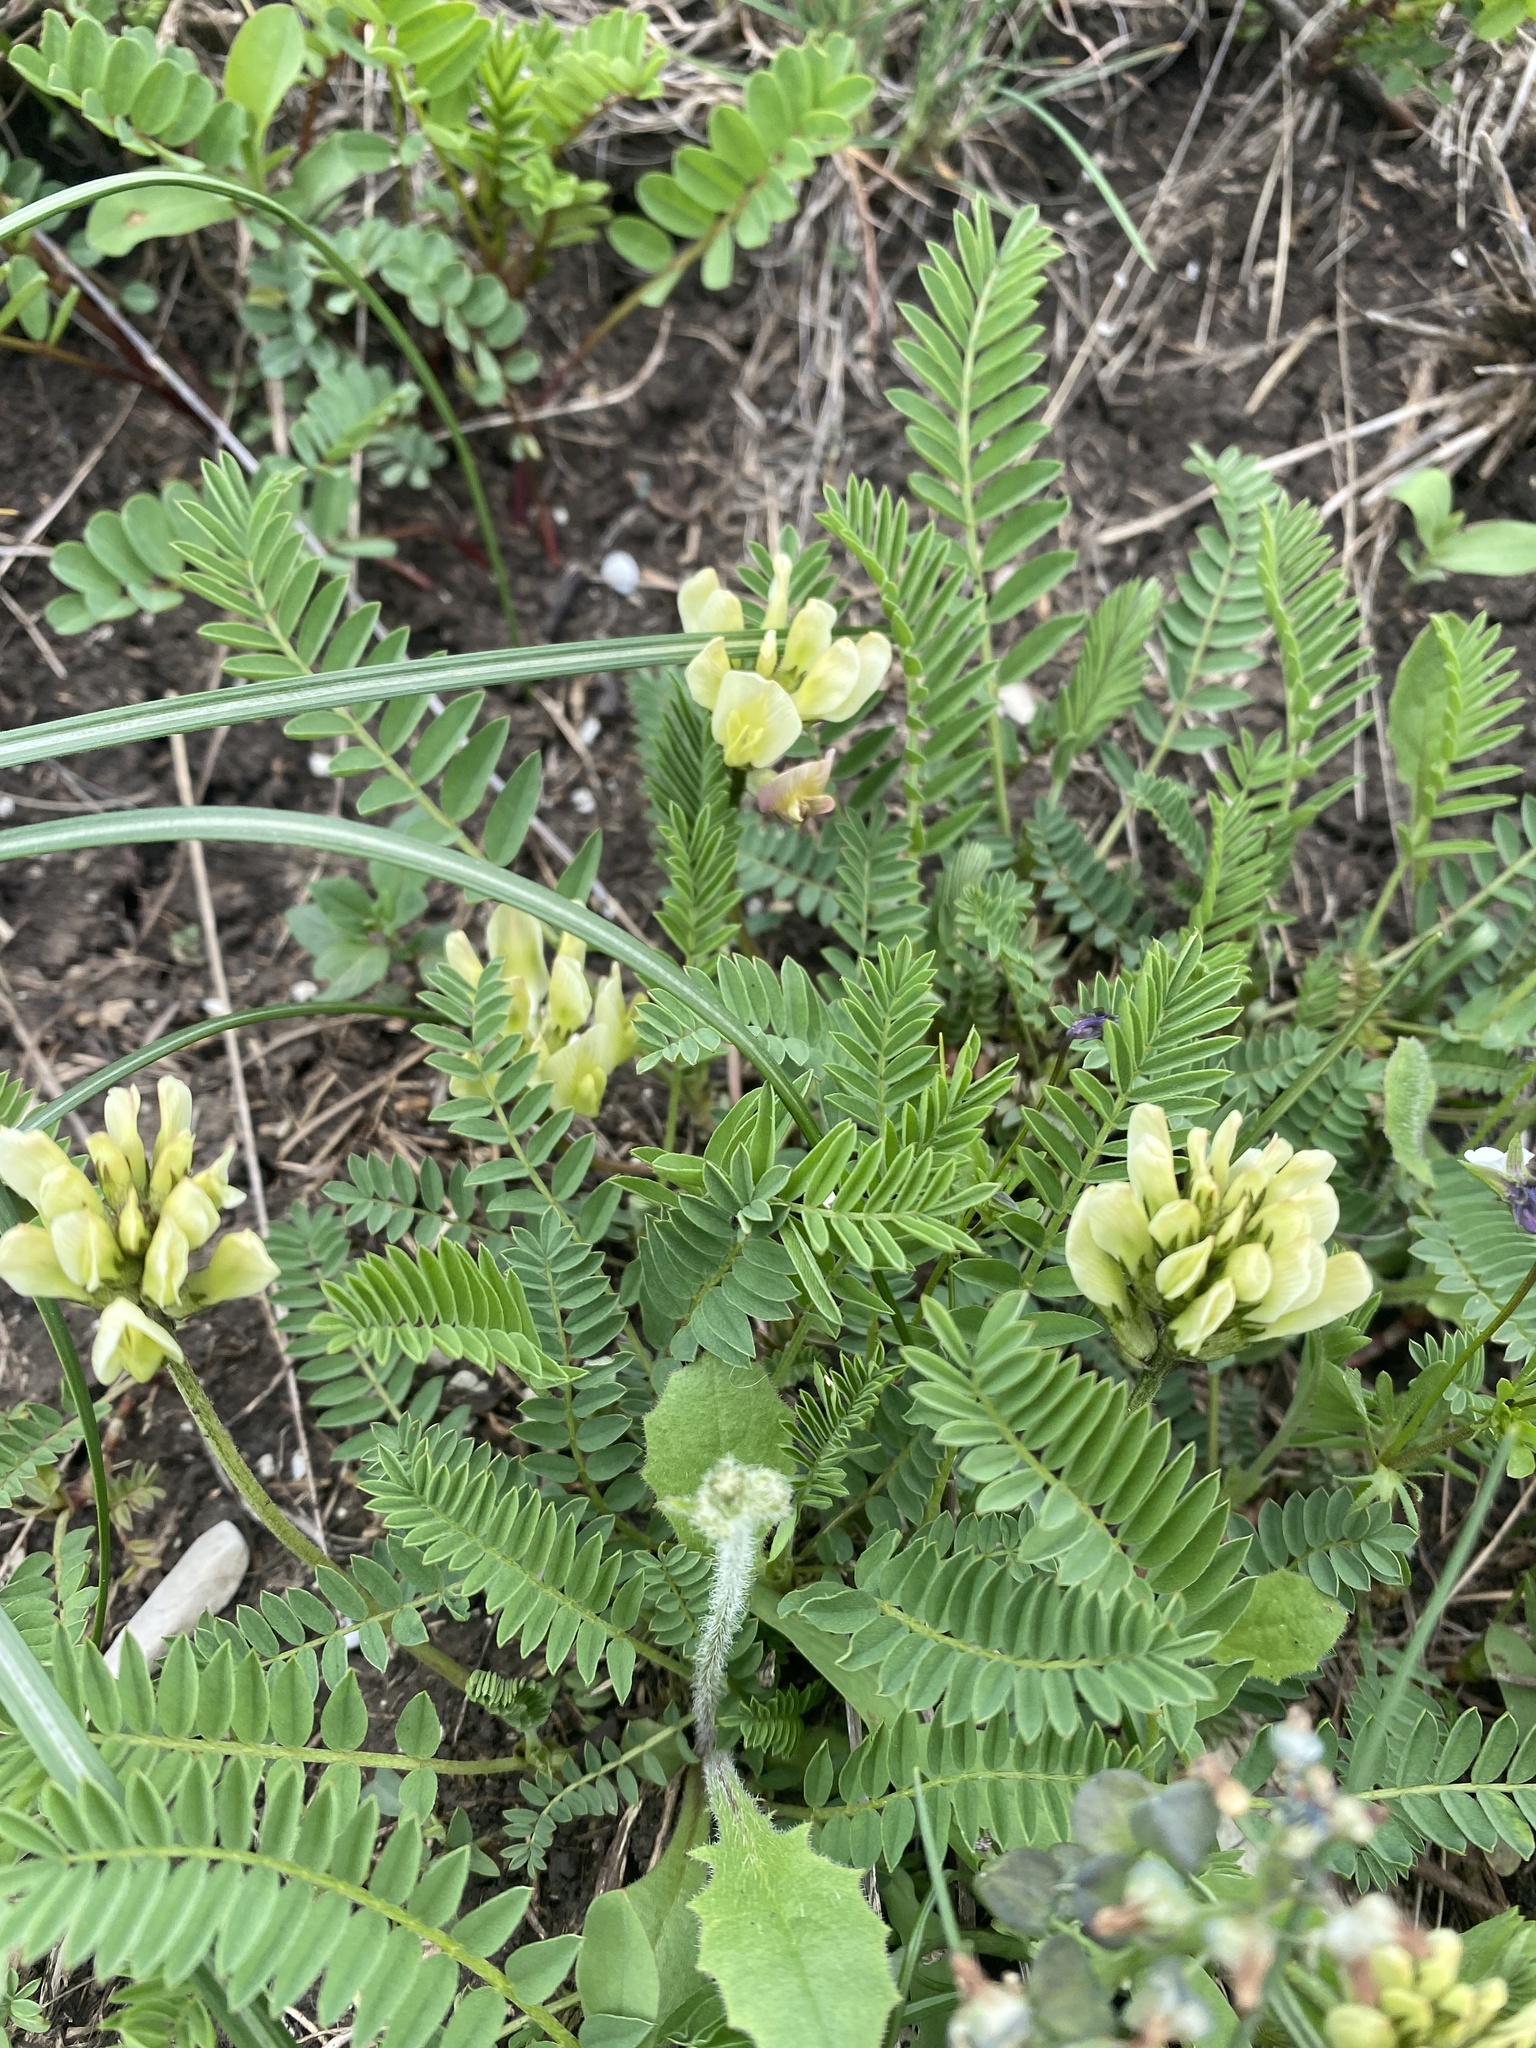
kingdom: Plantae
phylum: Tracheophyta
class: Magnoliopsida
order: Fabales
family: Fabaceae
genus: Astragalus
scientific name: Astragalus cicer
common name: Chick-pea milk-vetch
